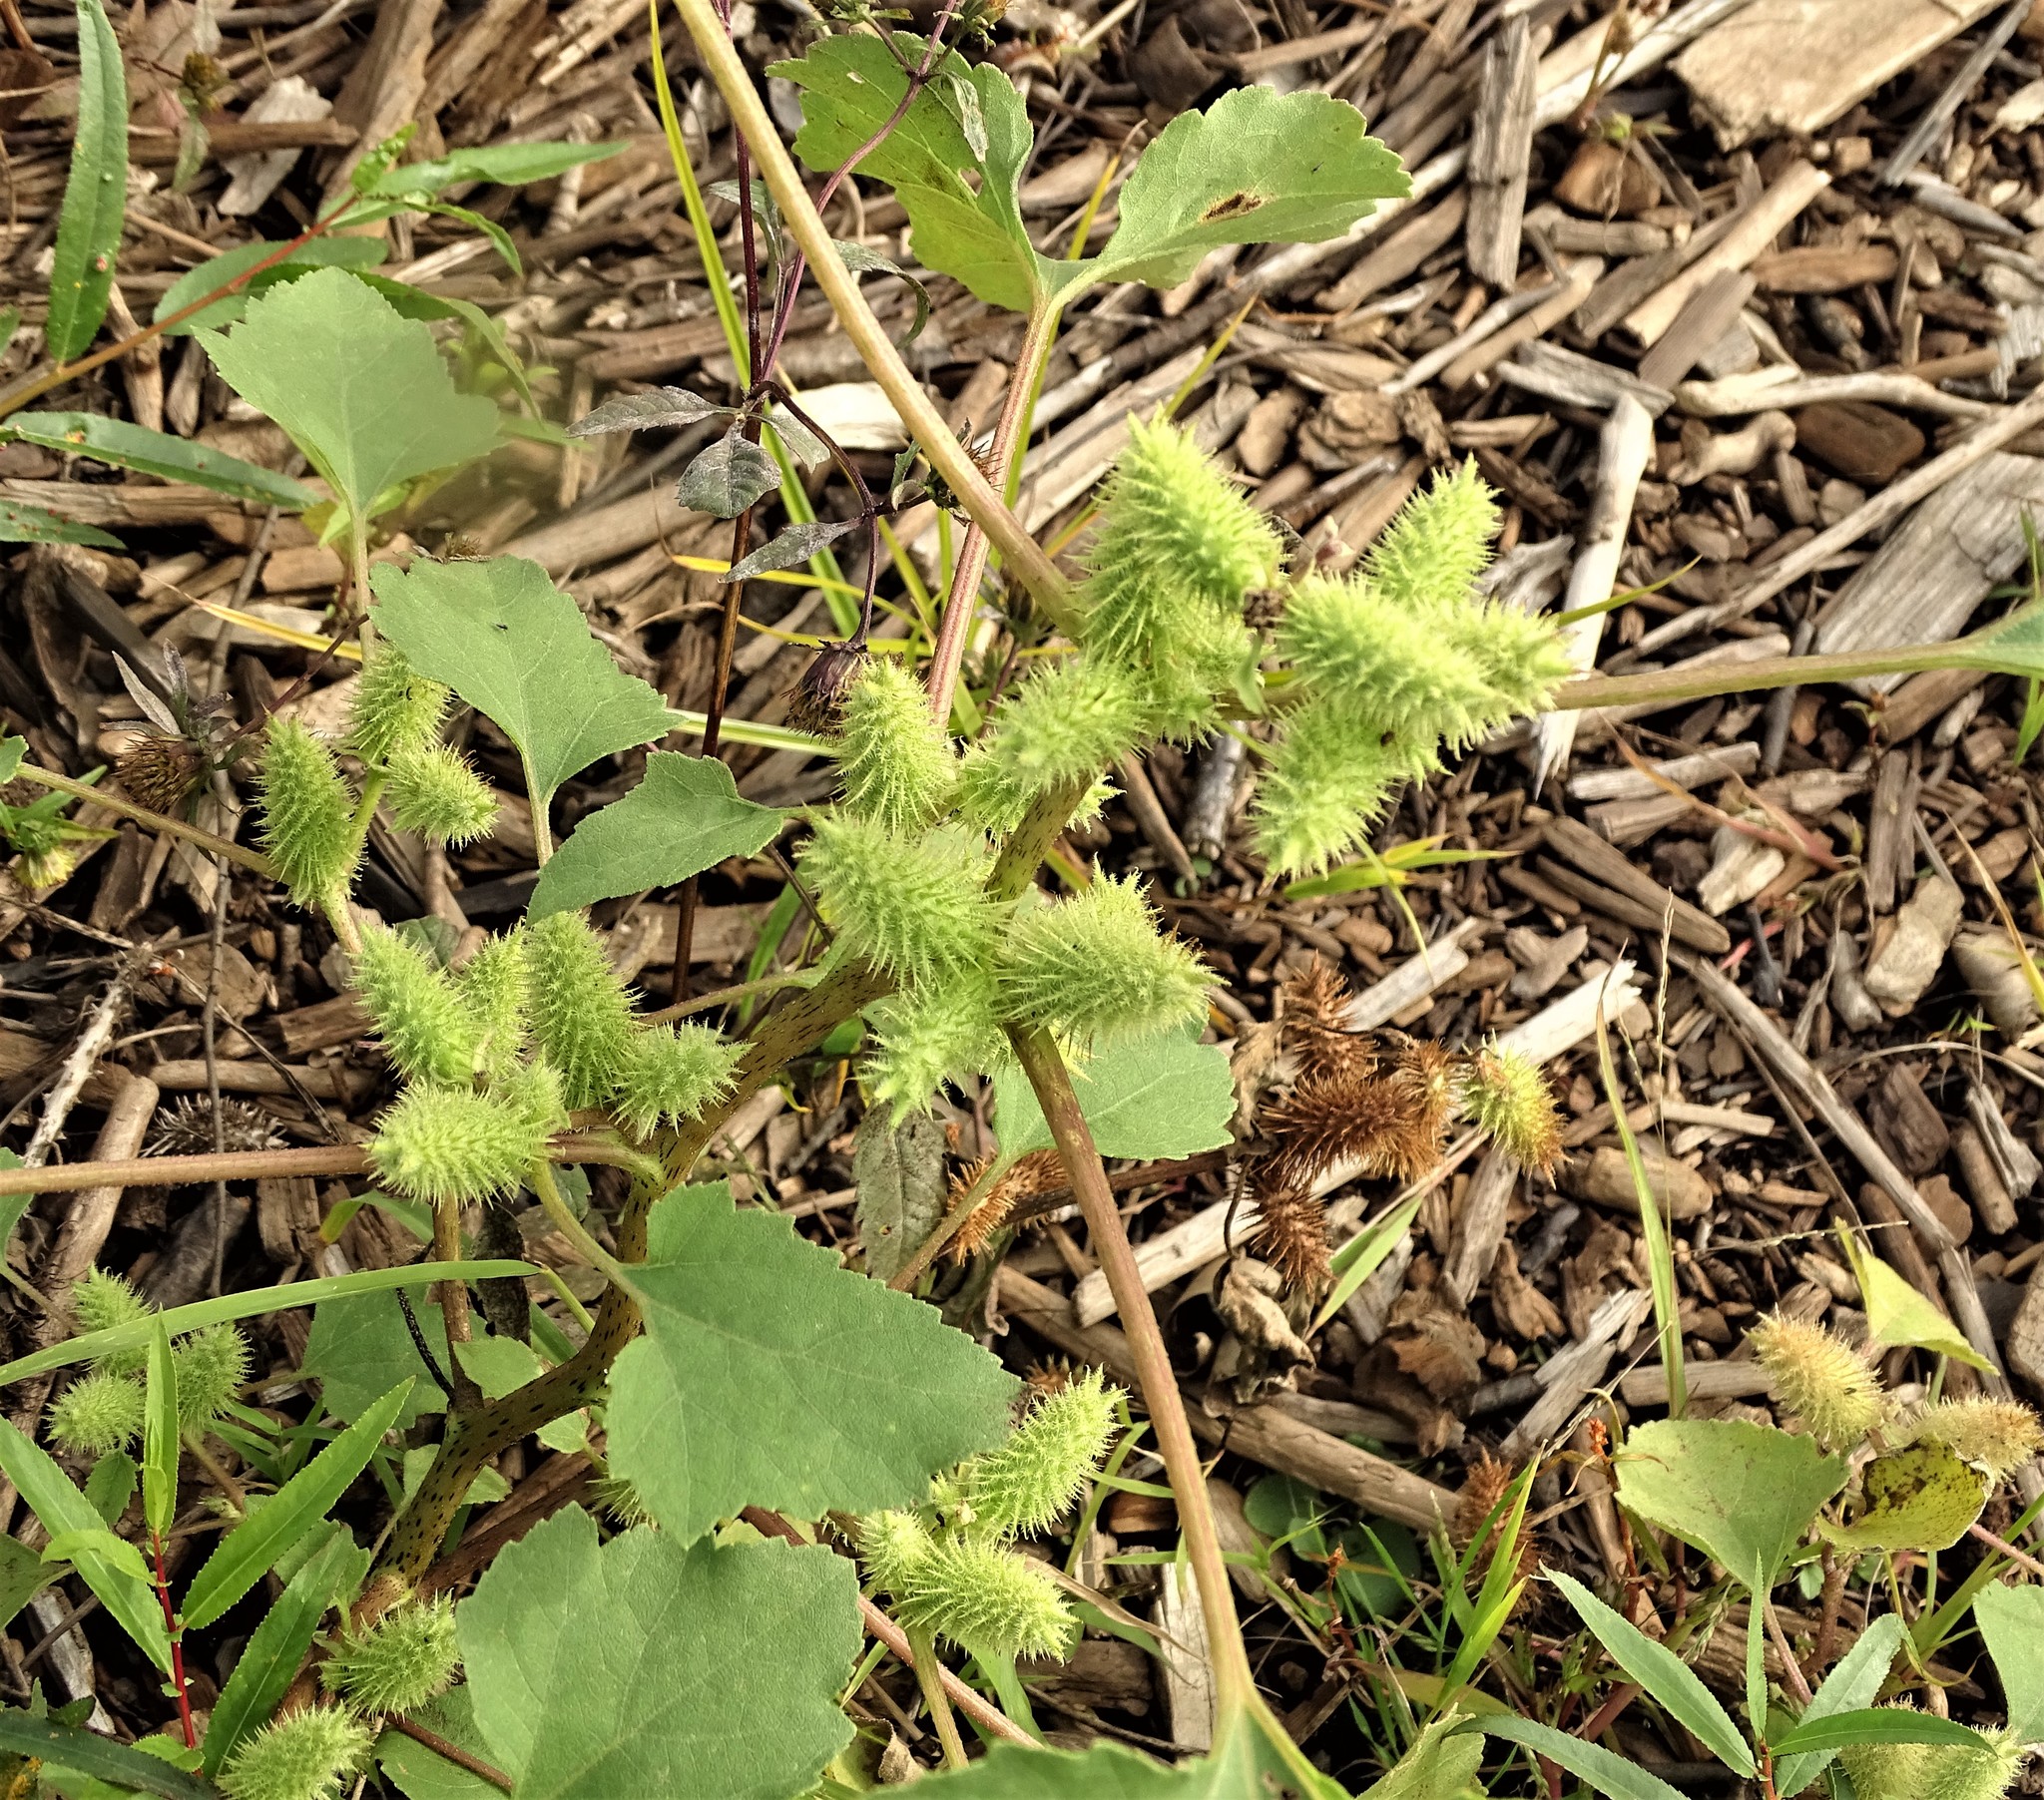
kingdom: Plantae
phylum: Tracheophyta
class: Magnoliopsida
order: Asterales
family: Asteraceae
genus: Xanthium
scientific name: Xanthium strumarium
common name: Rough cocklebur
